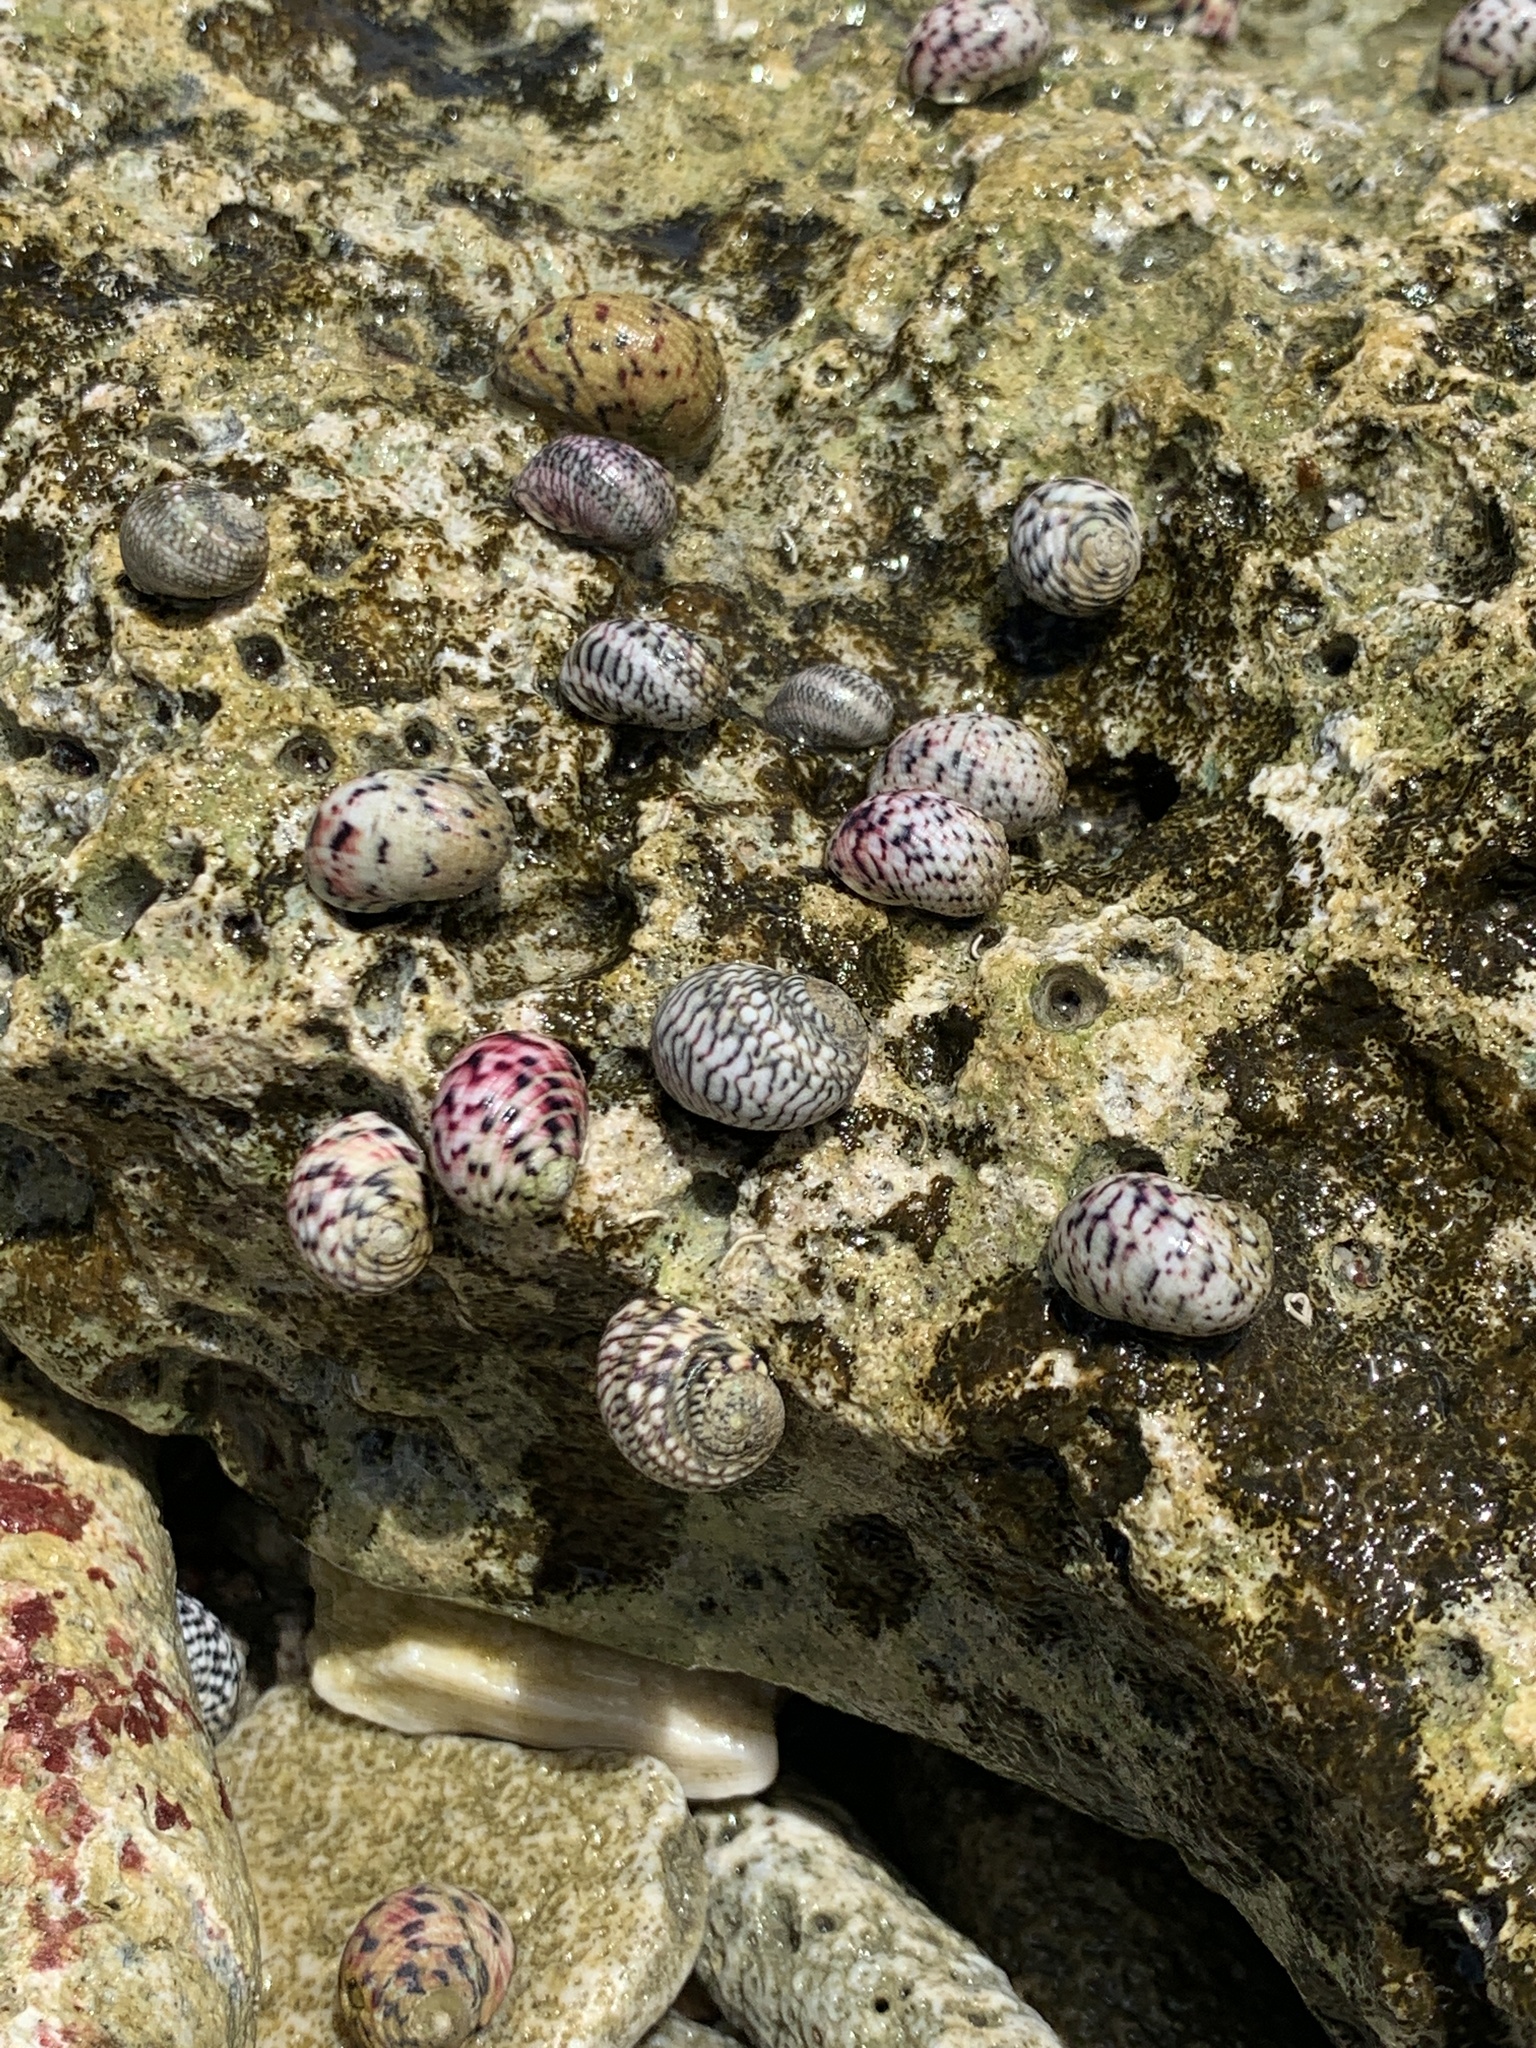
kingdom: Animalia
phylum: Mollusca
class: Gastropoda
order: Cycloneritida
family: Neritidae
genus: Nerita
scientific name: Nerita versicolor
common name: Four-tooth nerite
